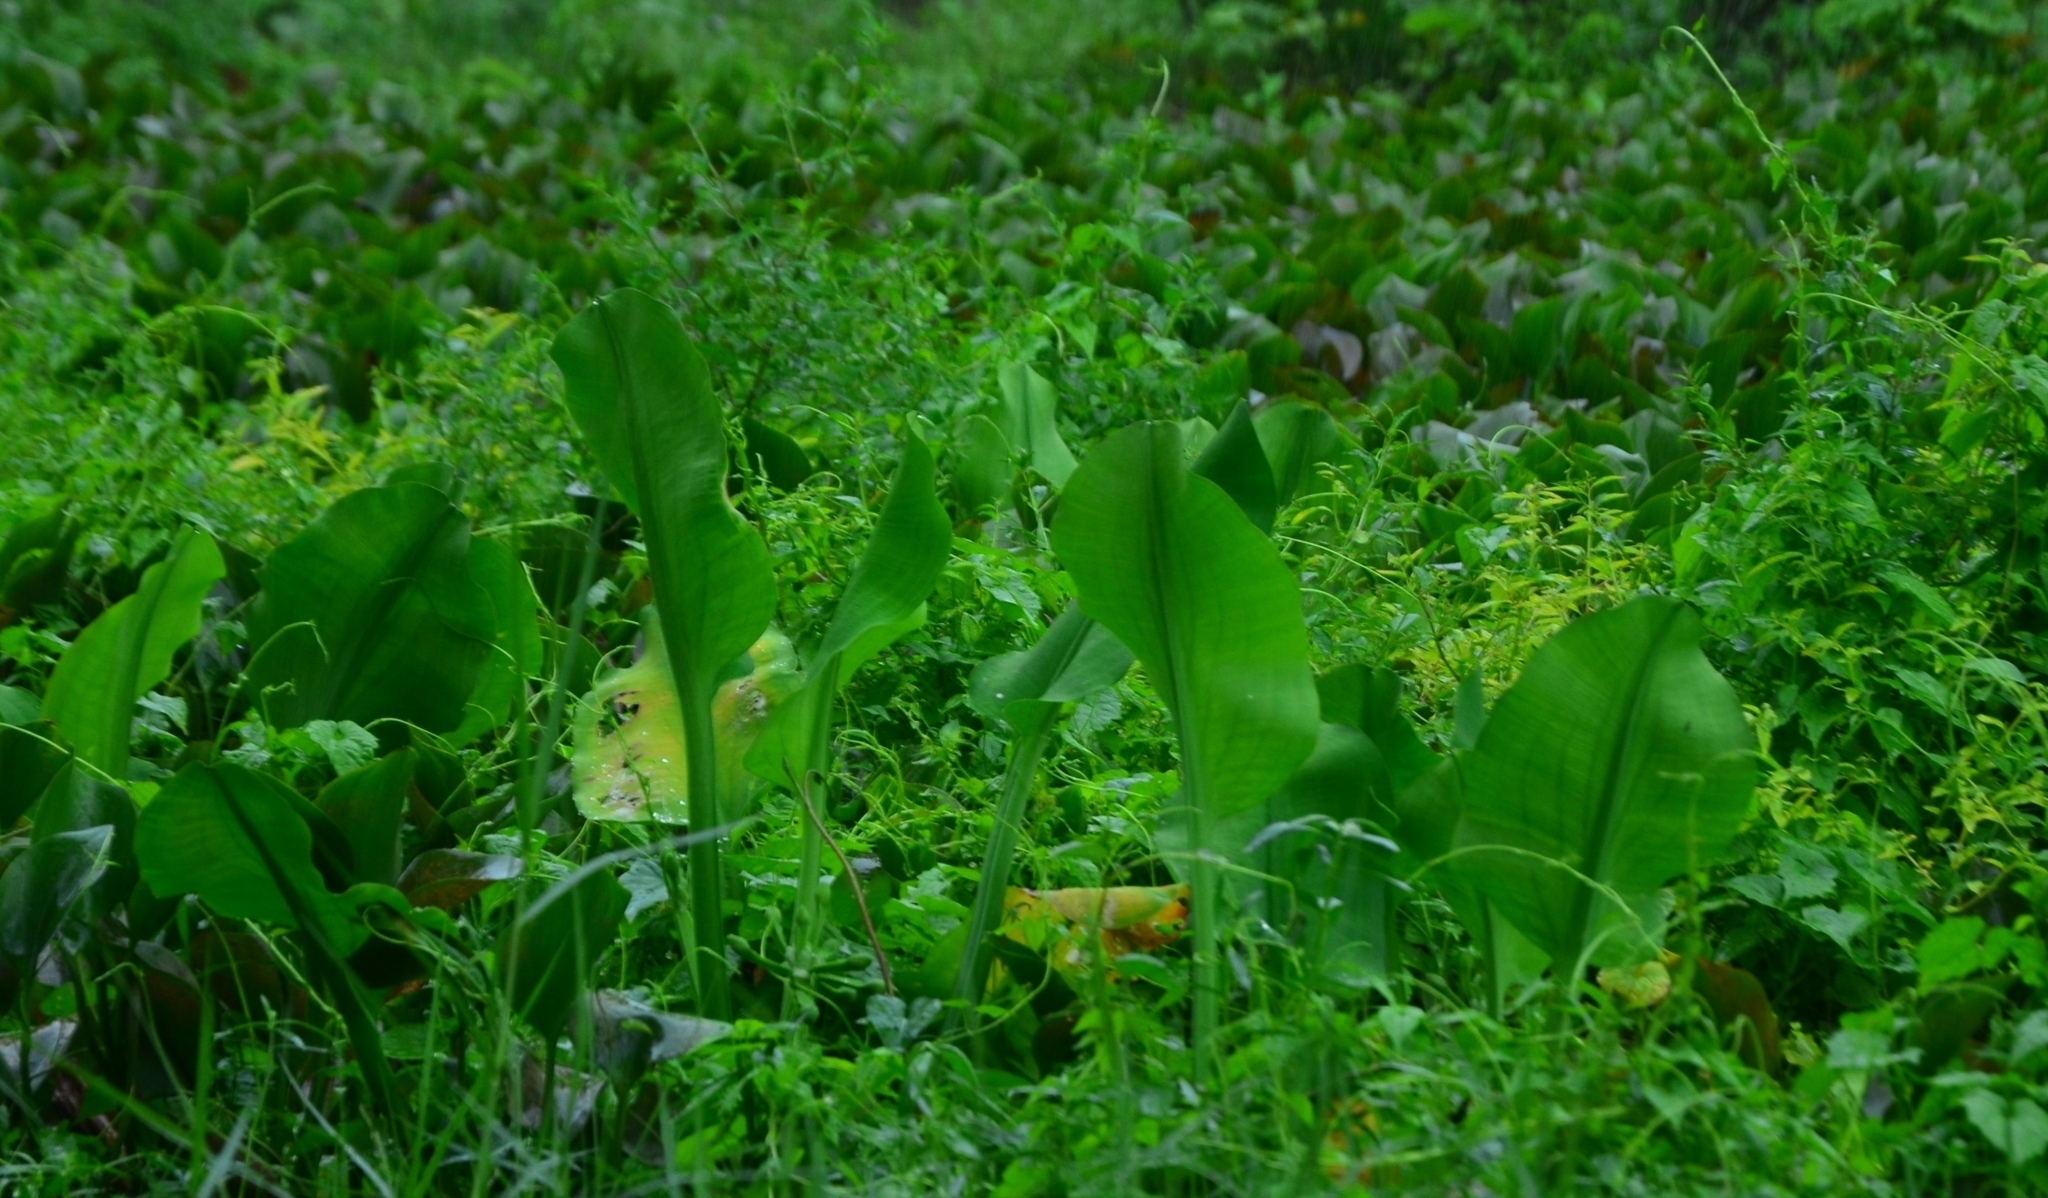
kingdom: Plantae
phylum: Tracheophyta
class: Liliopsida
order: Alismatales
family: Alismataceae
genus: Limnocharis
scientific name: Limnocharis flava
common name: Sawah-flower-rush
